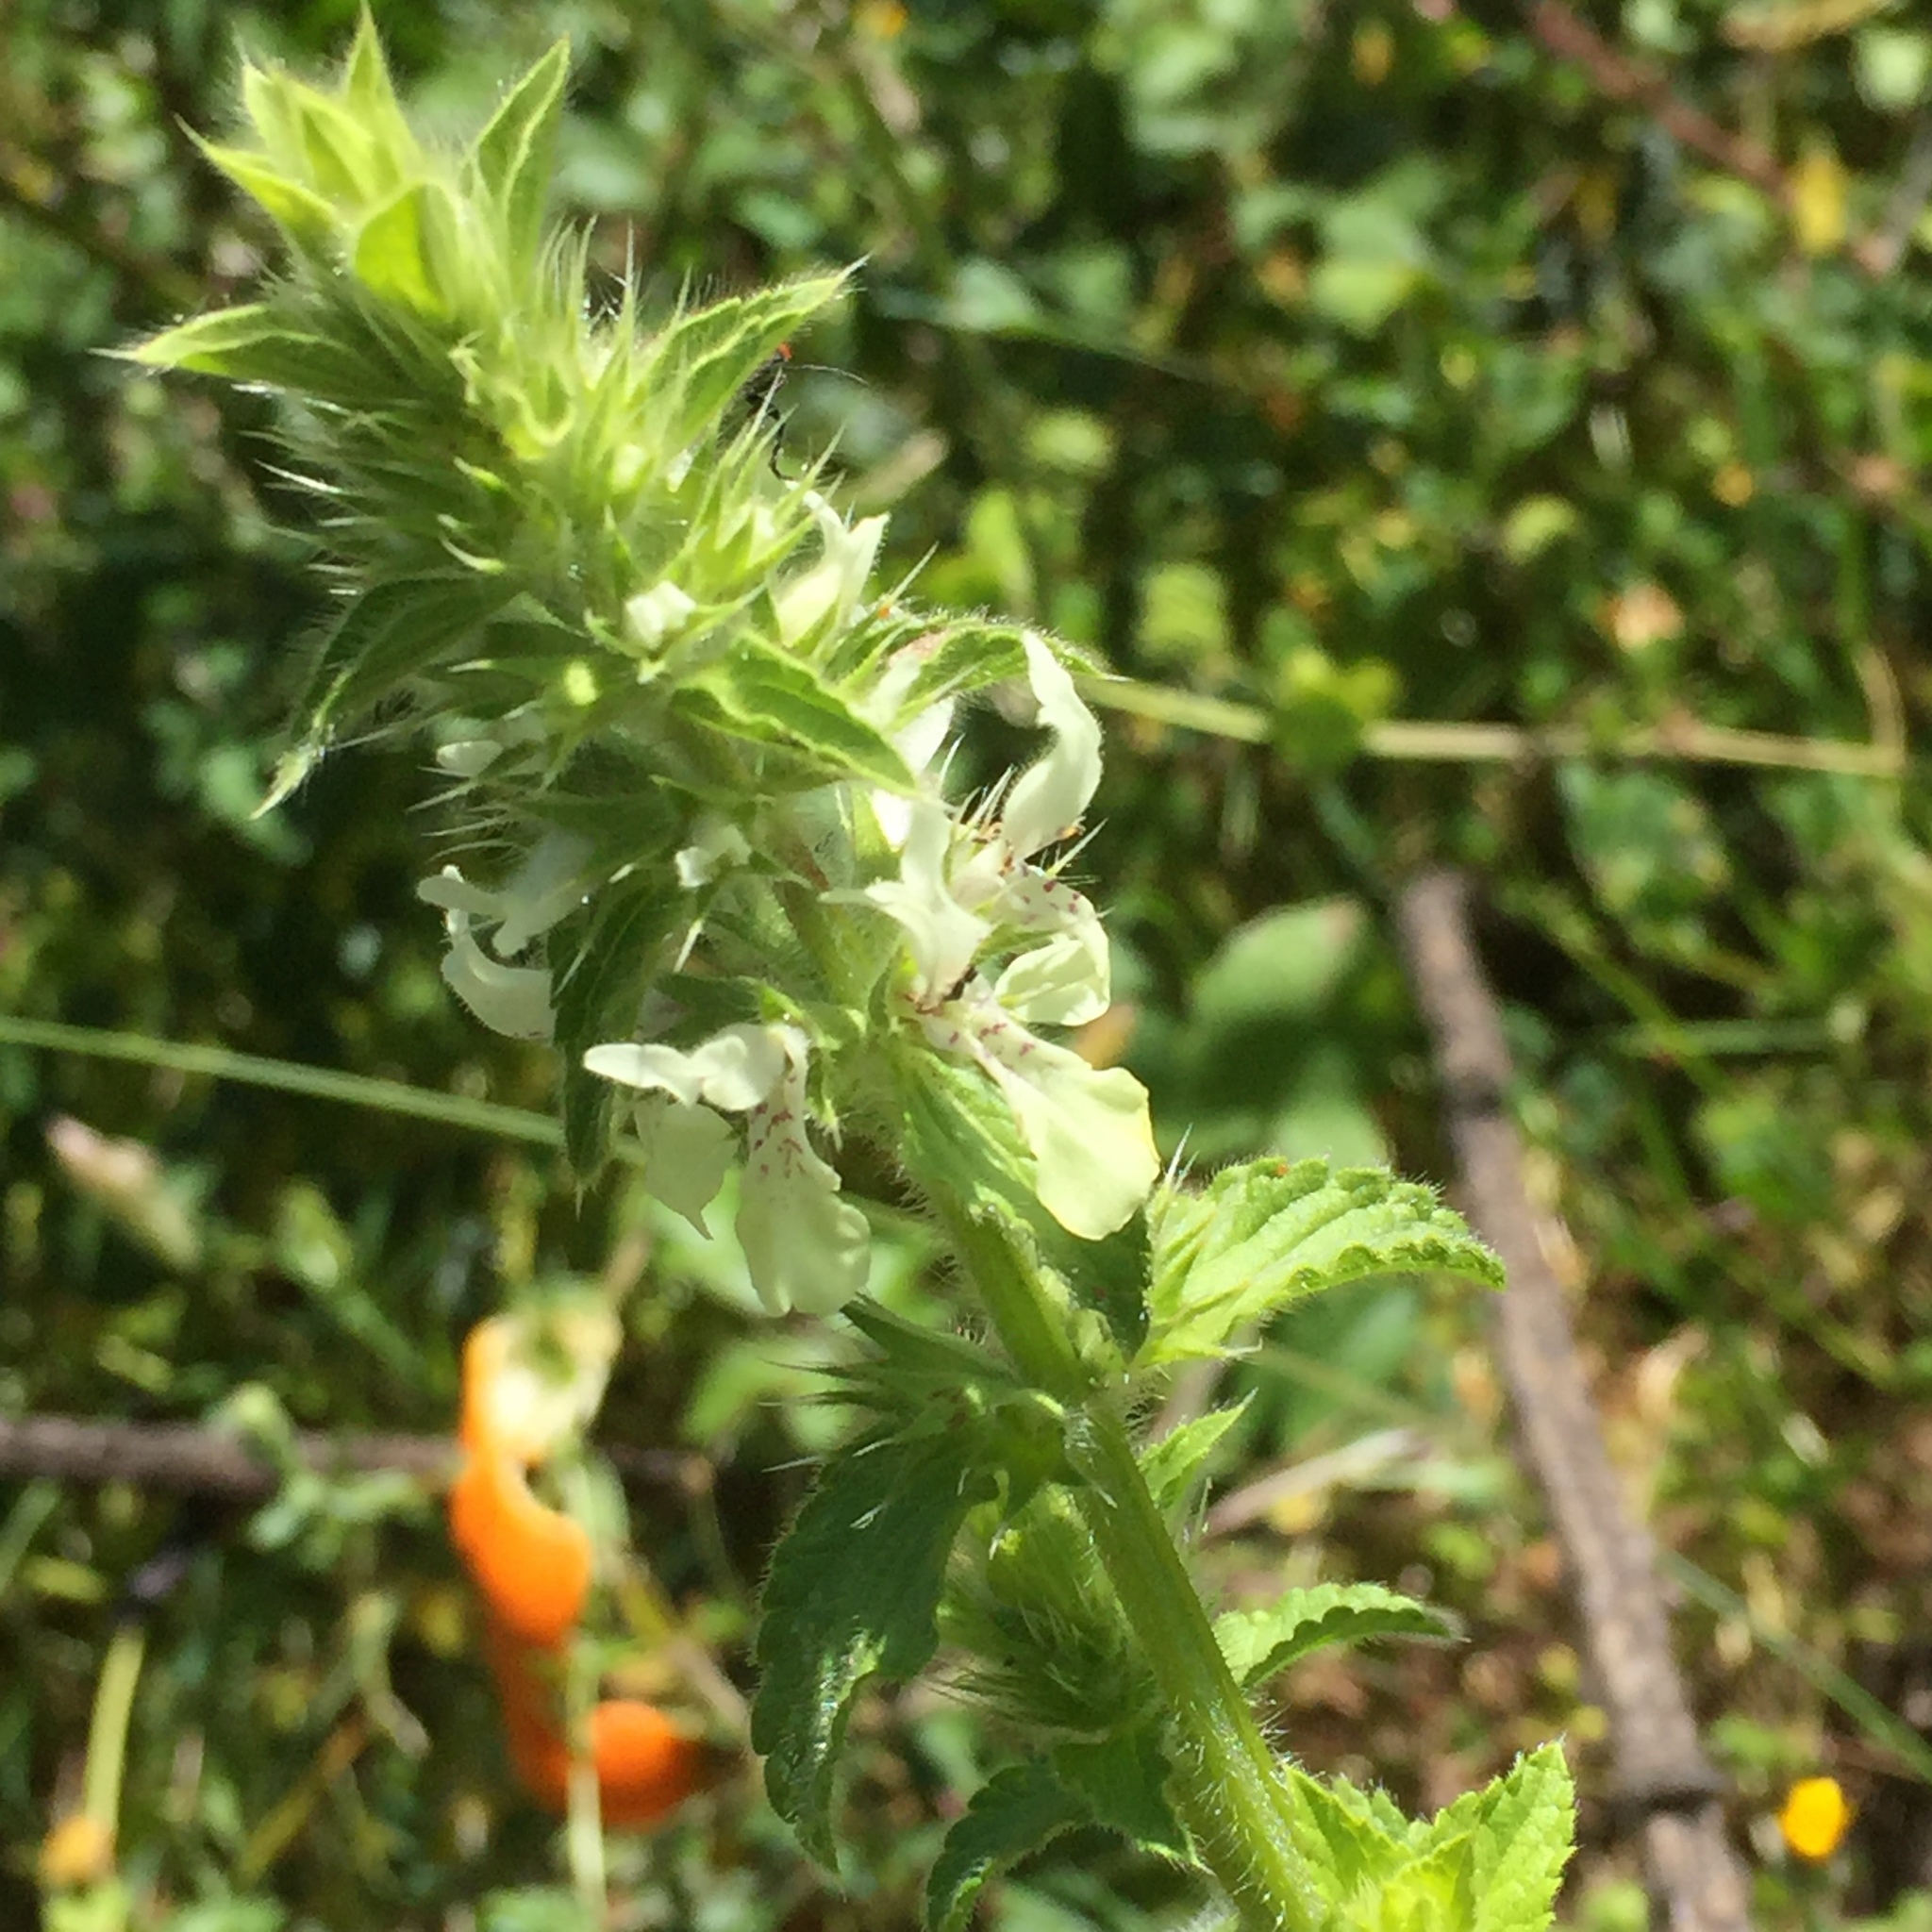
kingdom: Plantae
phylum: Tracheophyta
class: Magnoliopsida
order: Lamiales
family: Lamiaceae
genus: Stachys
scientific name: Stachys ocymastrum
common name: Italian hedgenettle
